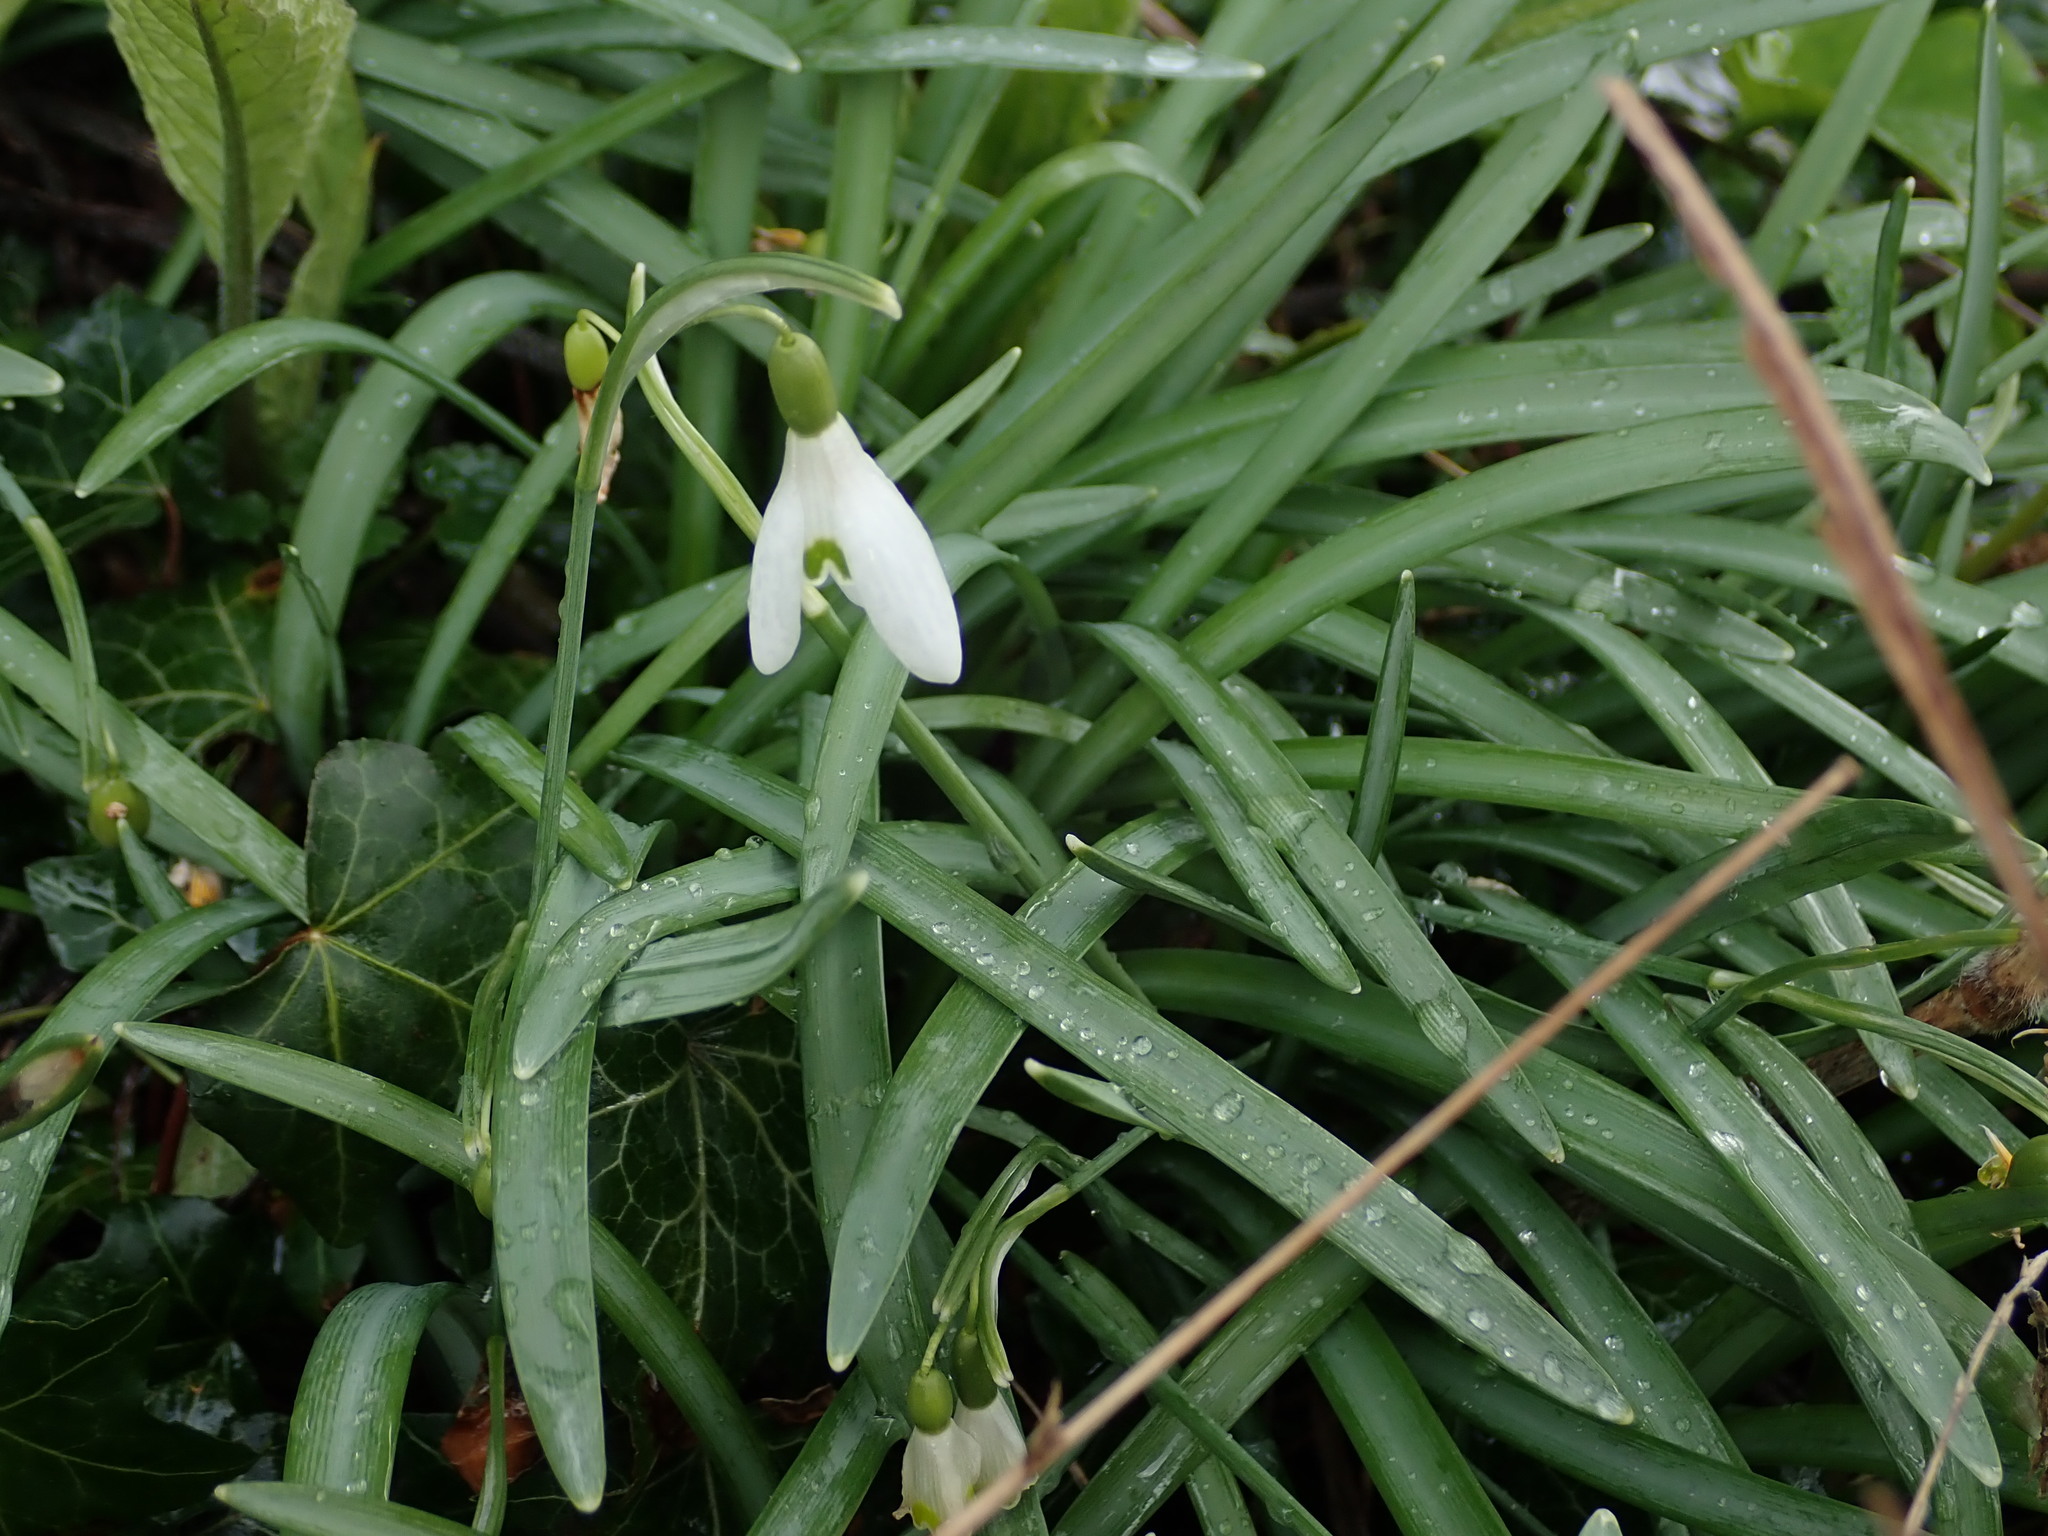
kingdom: Plantae
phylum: Tracheophyta
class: Liliopsida
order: Asparagales
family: Amaryllidaceae
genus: Galanthus
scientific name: Galanthus nivalis
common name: Snowdrop
